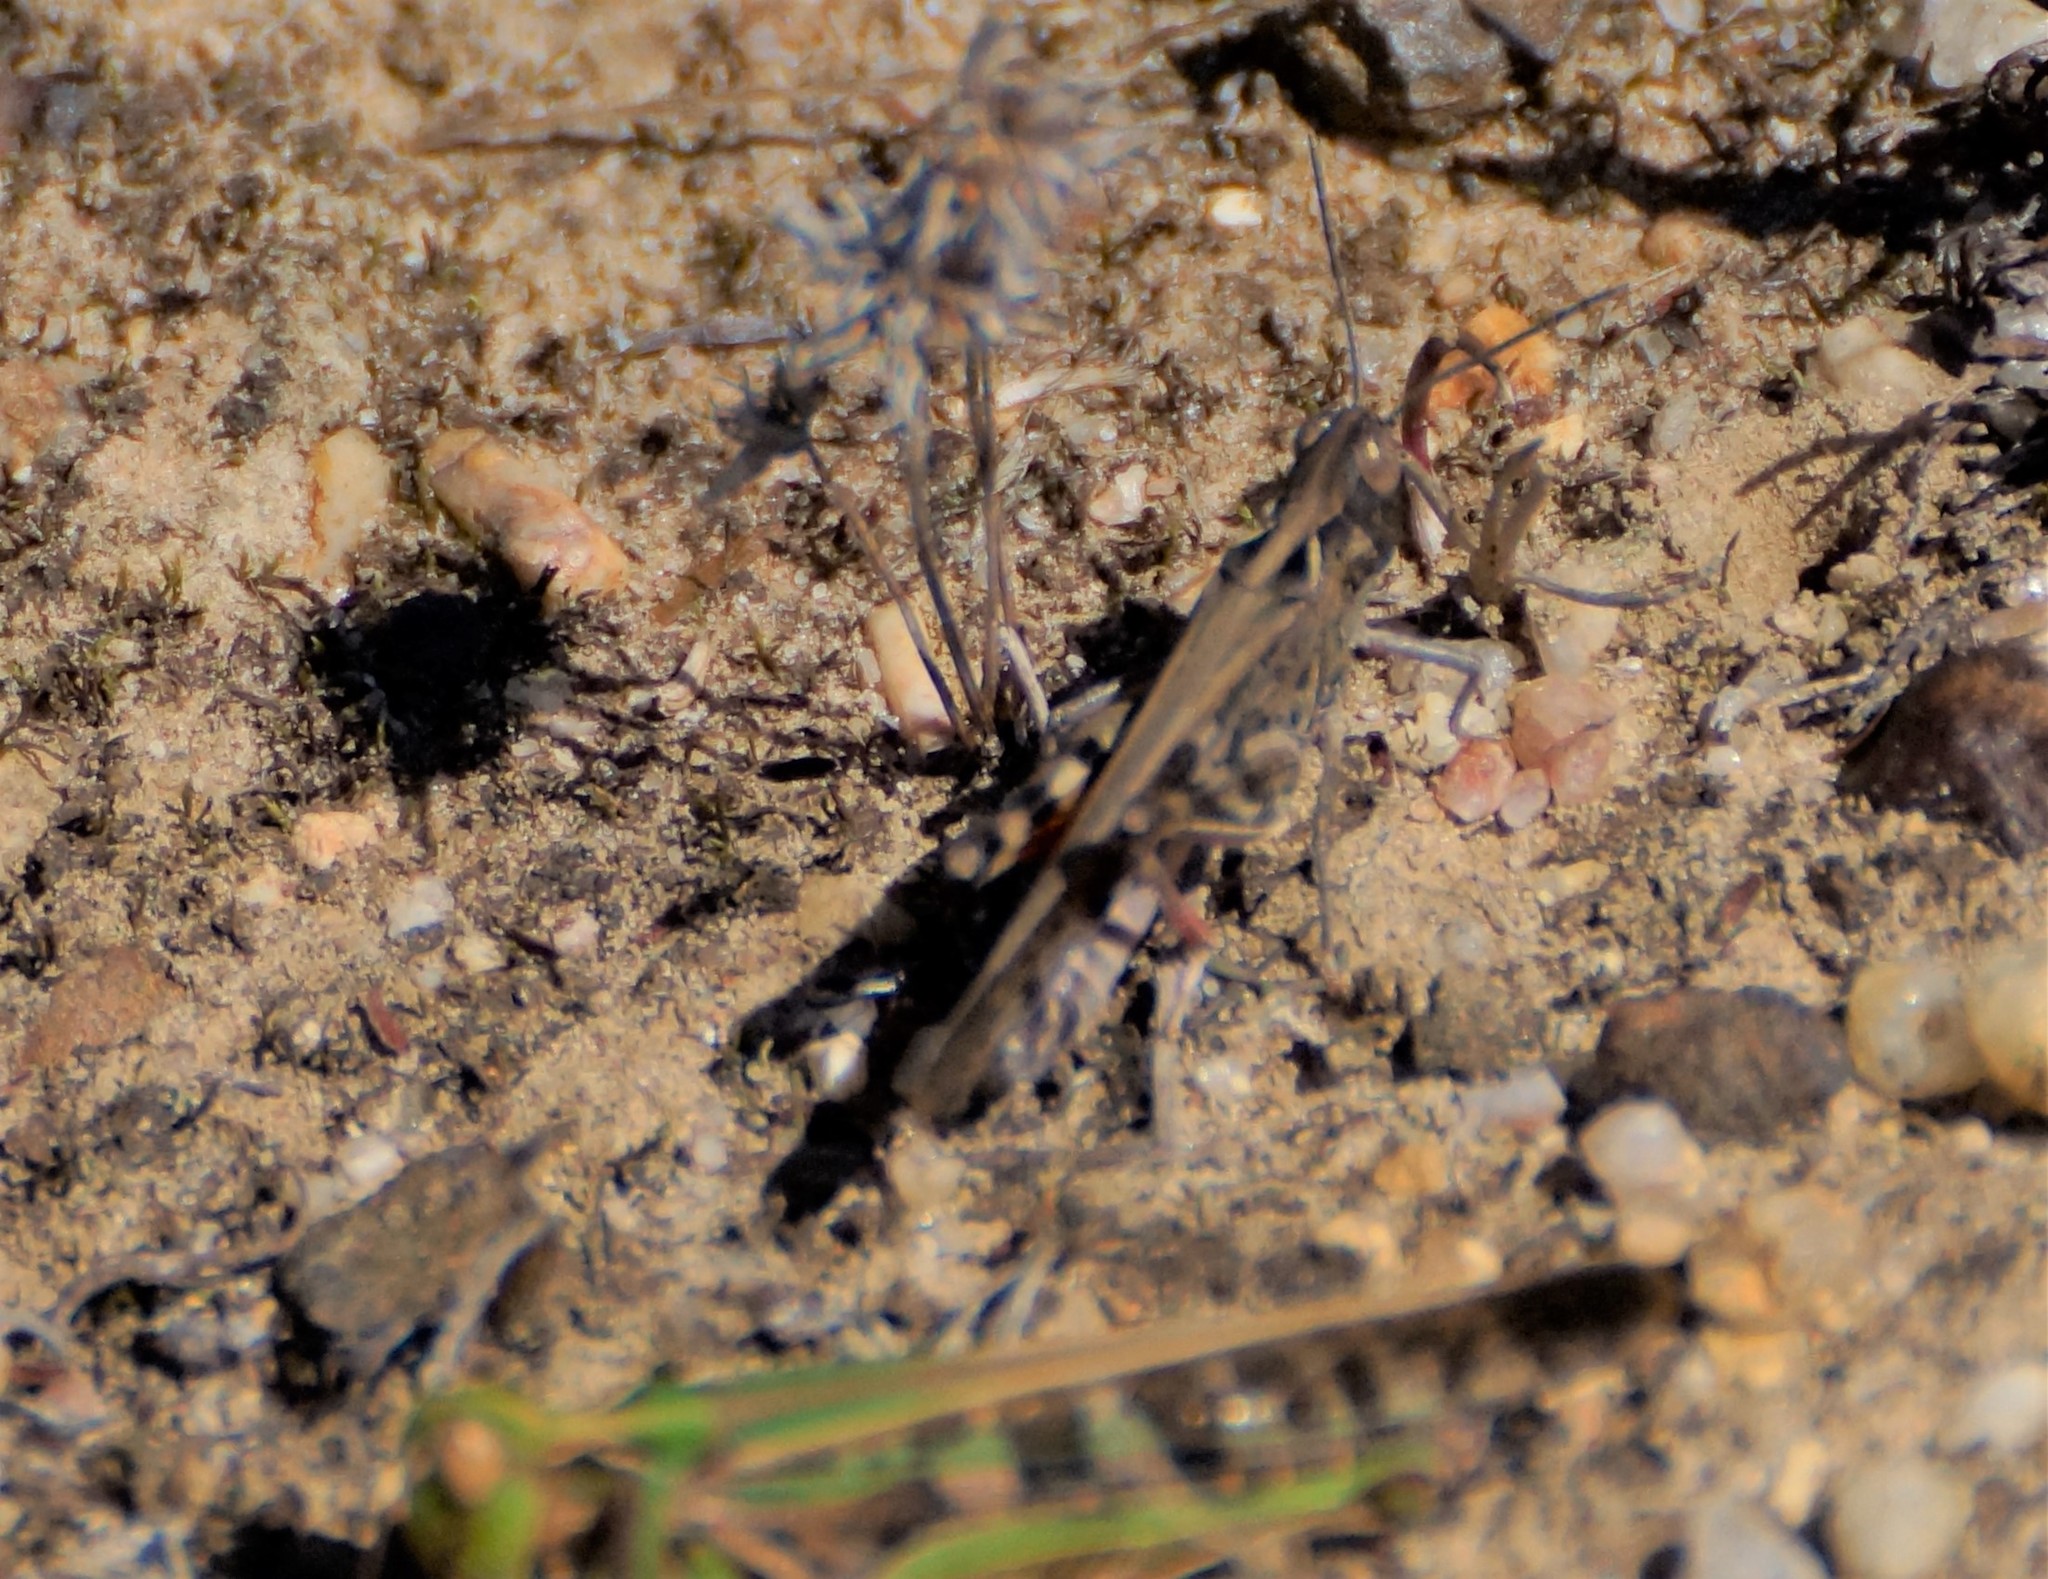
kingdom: Animalia
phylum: Arthropoda
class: Insecta
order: Orthoptera
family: Acrididae
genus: Chortoicetes
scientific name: Chortoicetes terminifera
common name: Australian plague locust
